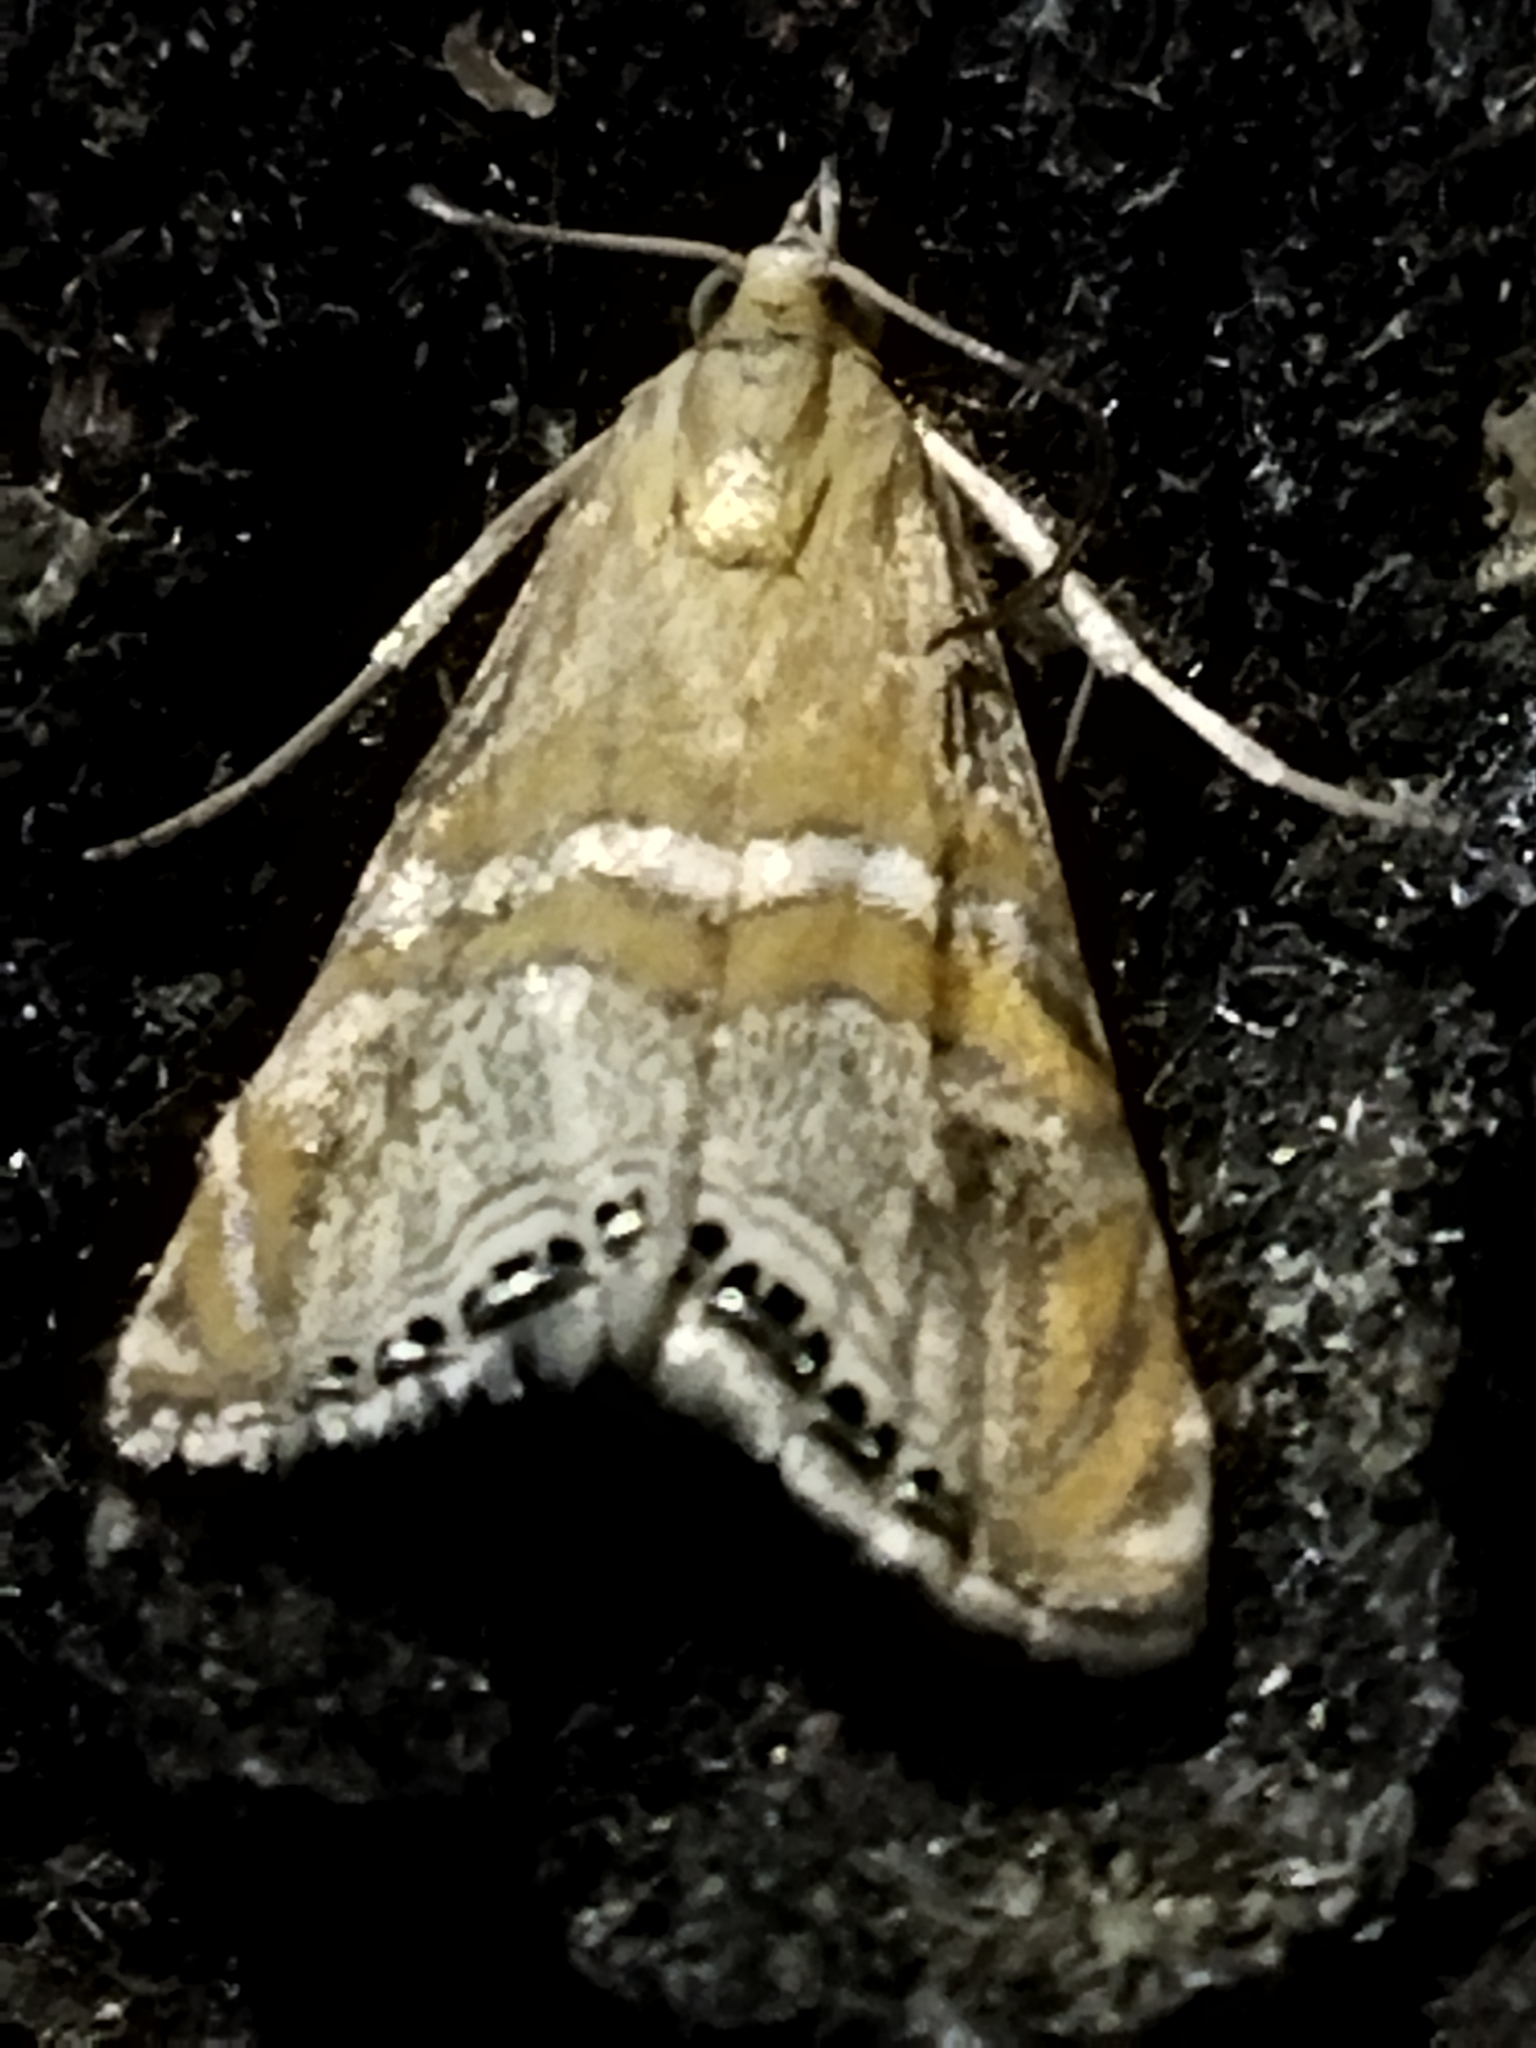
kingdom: Animalia
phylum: Arthropoda
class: Insecta
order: Lepidoptera
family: Crambidae
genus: Euchromius
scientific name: Euchromius bella
